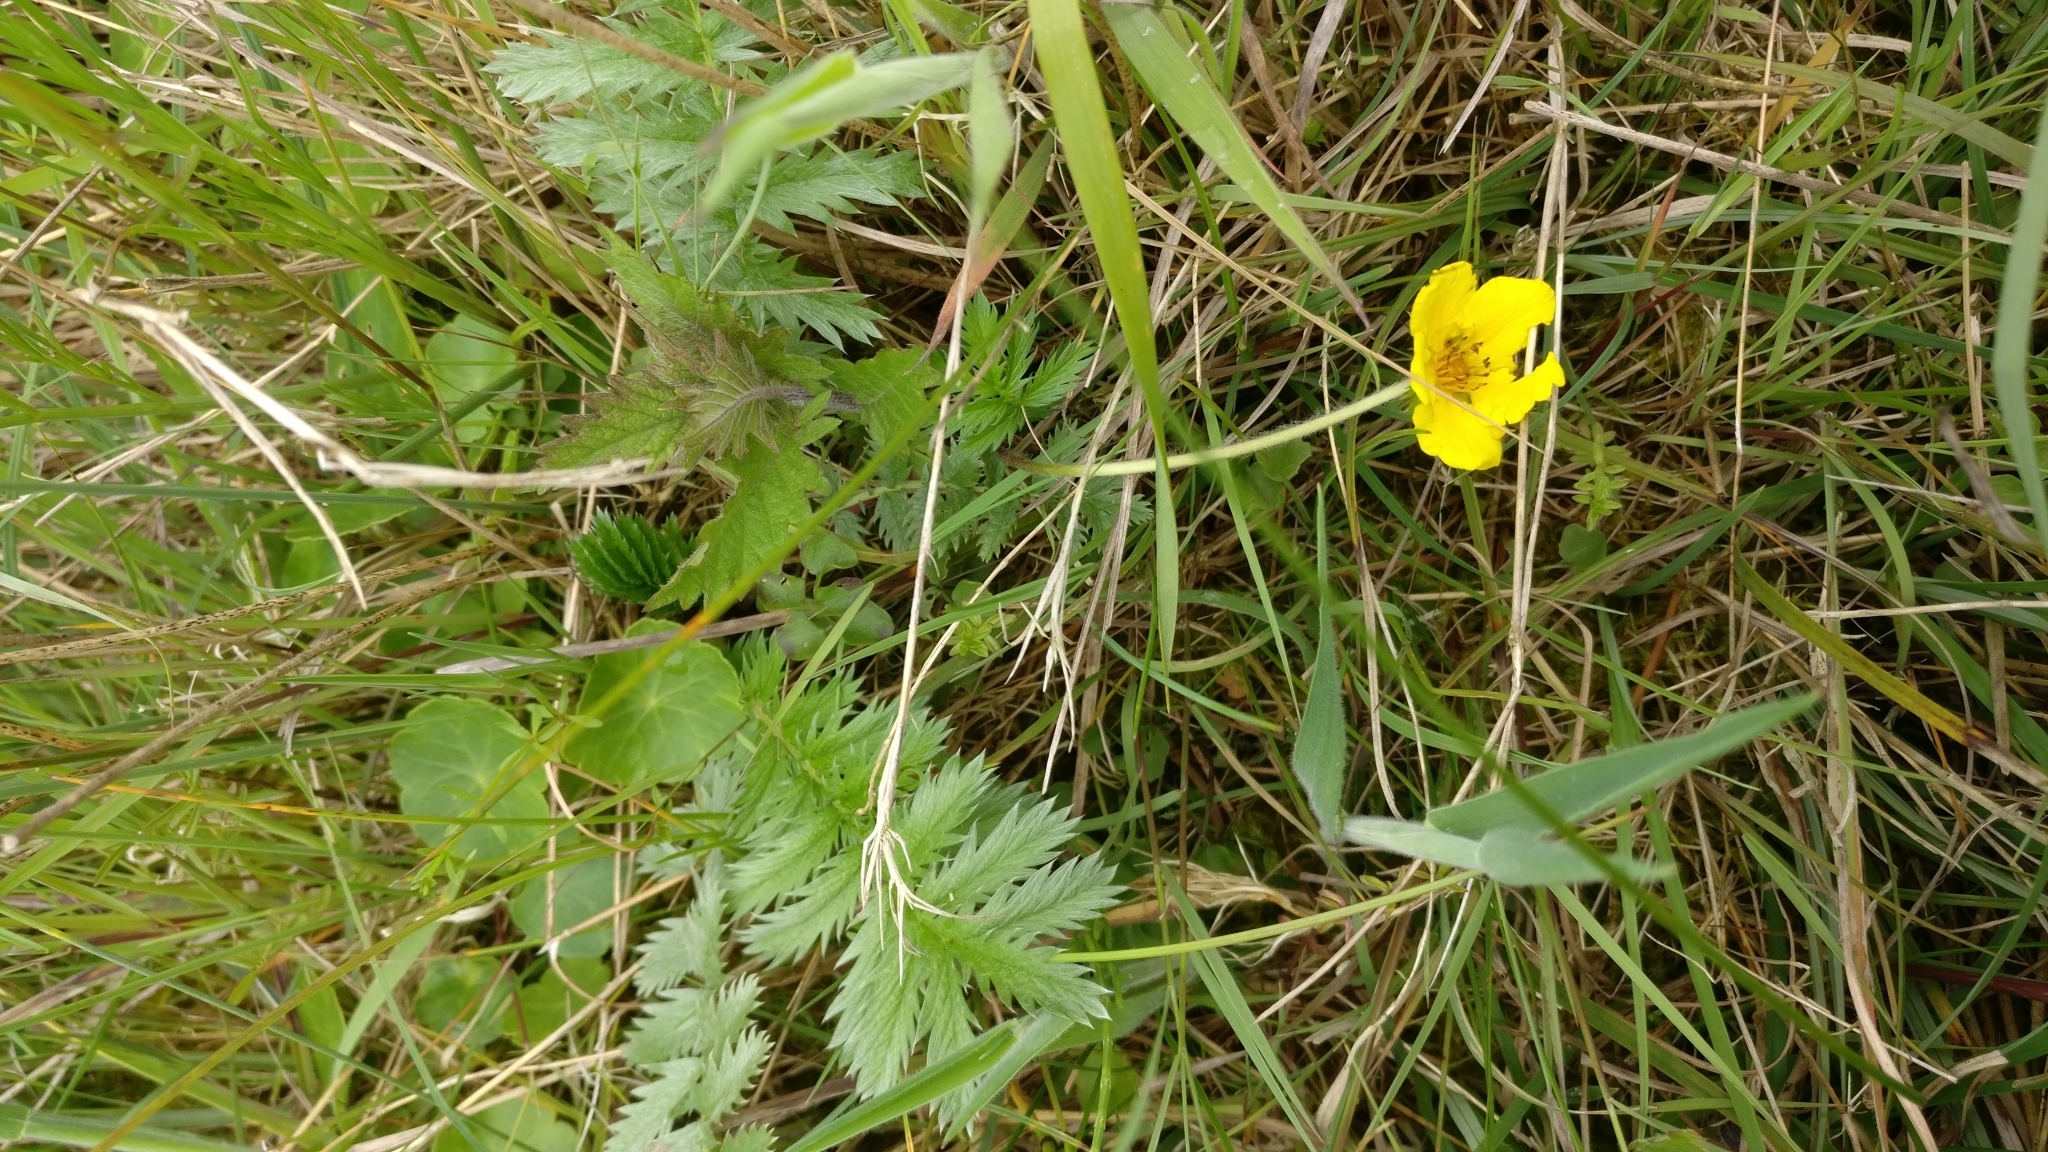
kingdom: Plantae
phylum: Tracheophyta
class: Magnoliopsida
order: Rosales
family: Rosaceae
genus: Argentina
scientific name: Argentina anserina
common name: Common silverweed
